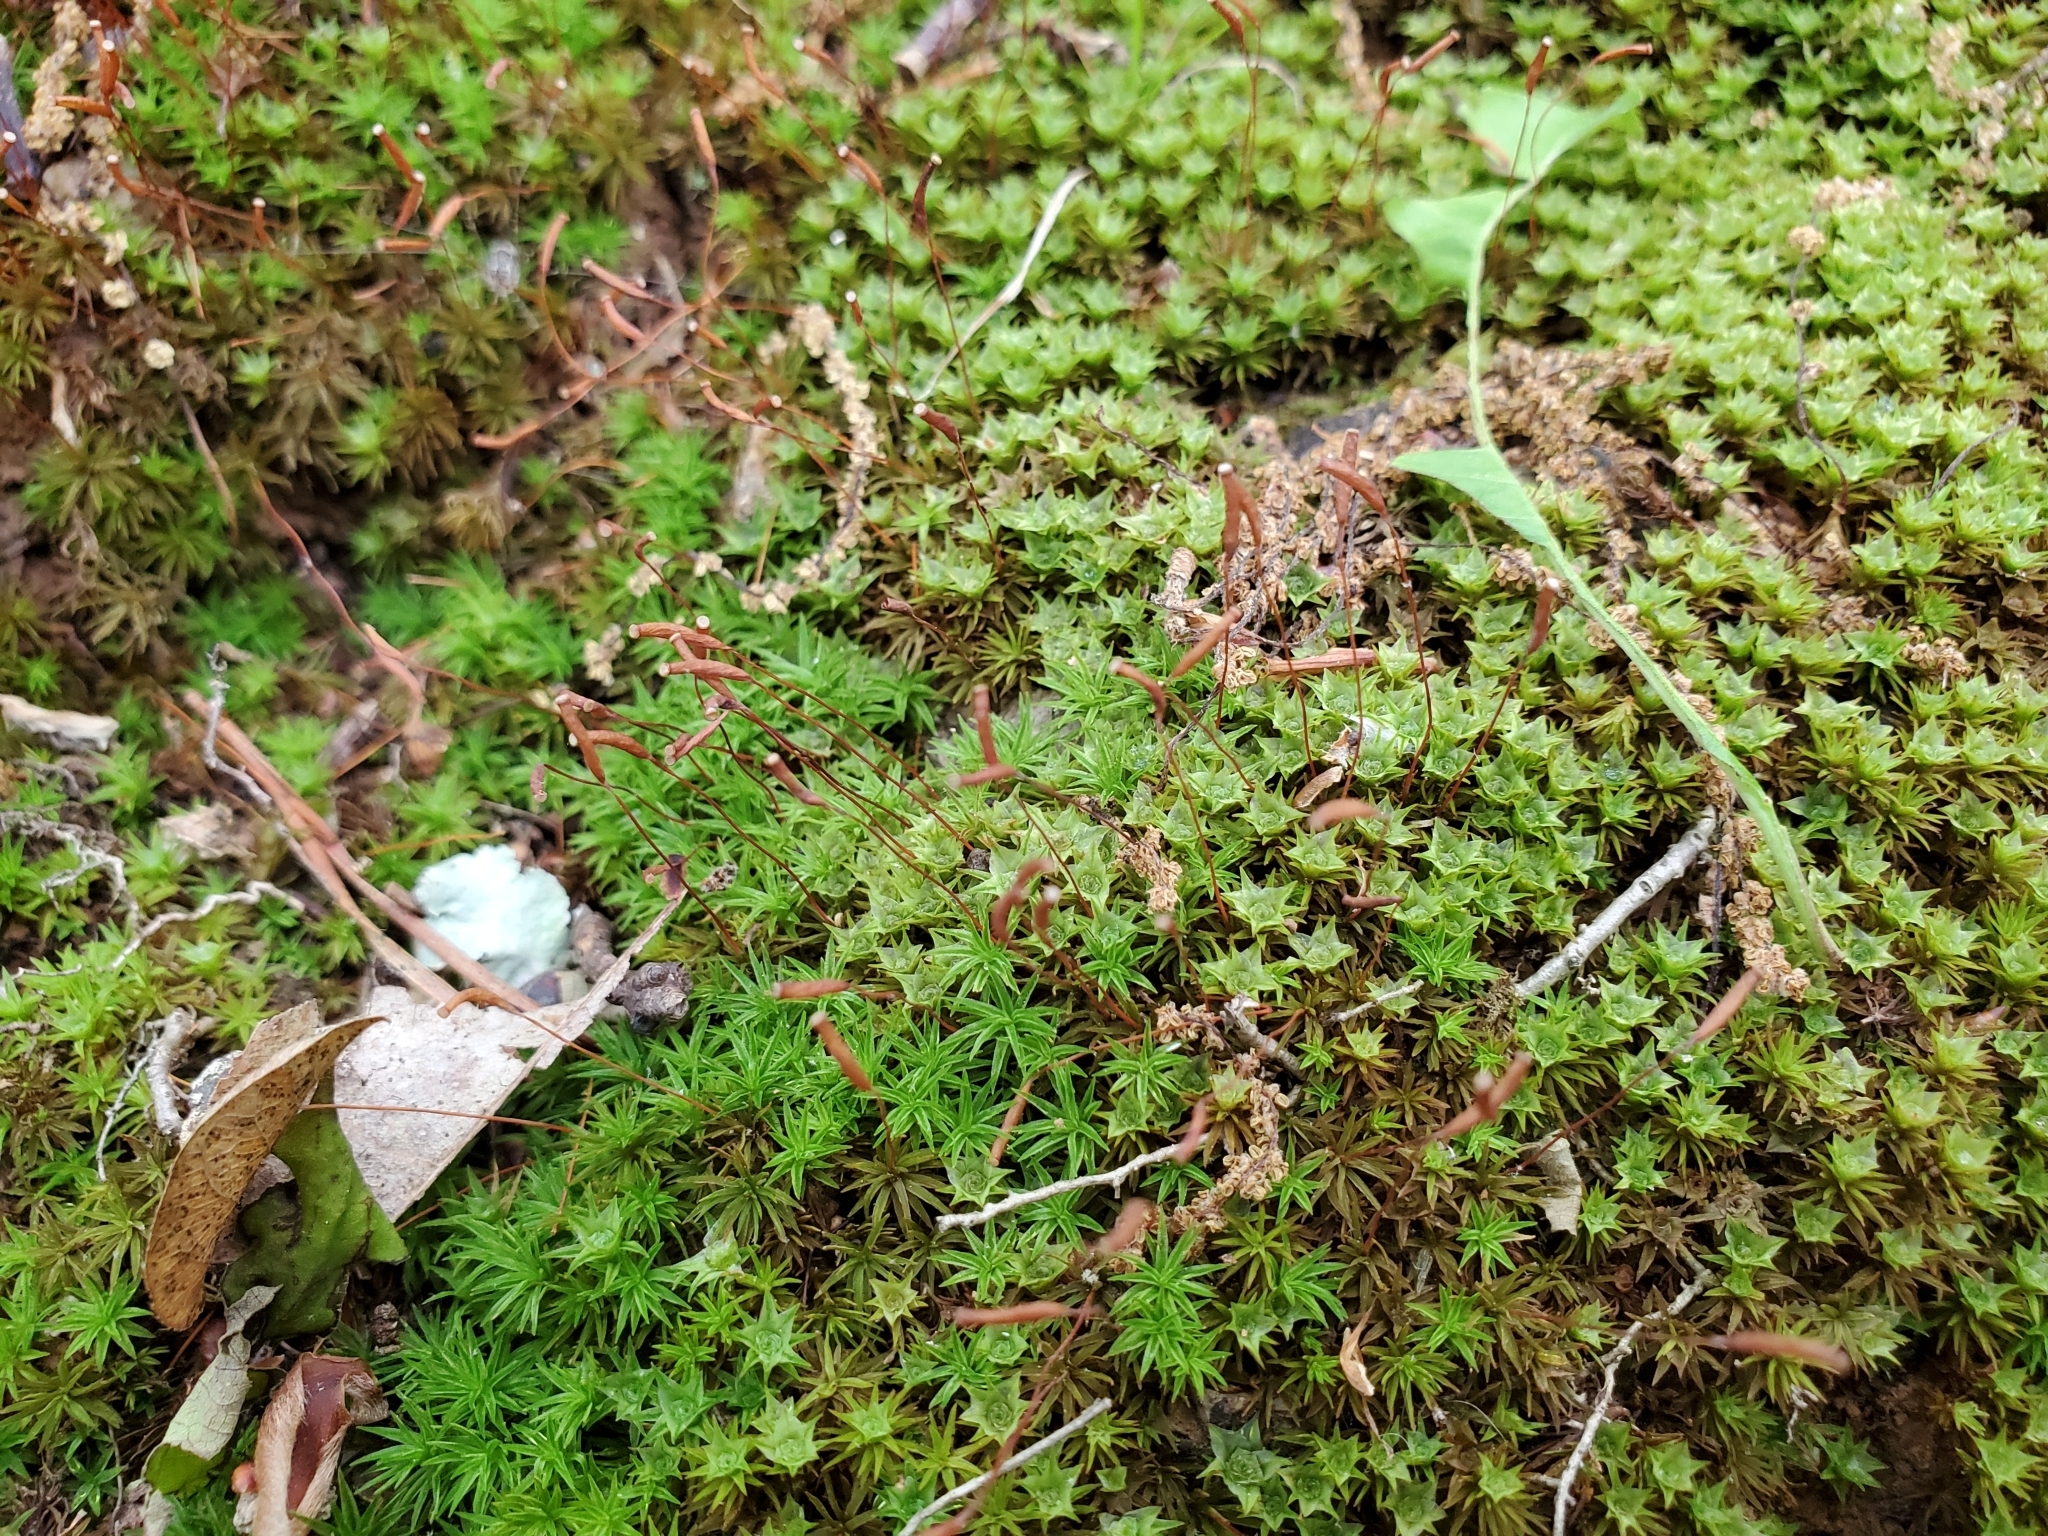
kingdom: Plantae
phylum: Bryophyta
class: Polytrichopsida
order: Polytrichales
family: Polytrichaceae
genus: Atrichum
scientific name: Atrichum angustatum
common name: Lesser smoothcap
